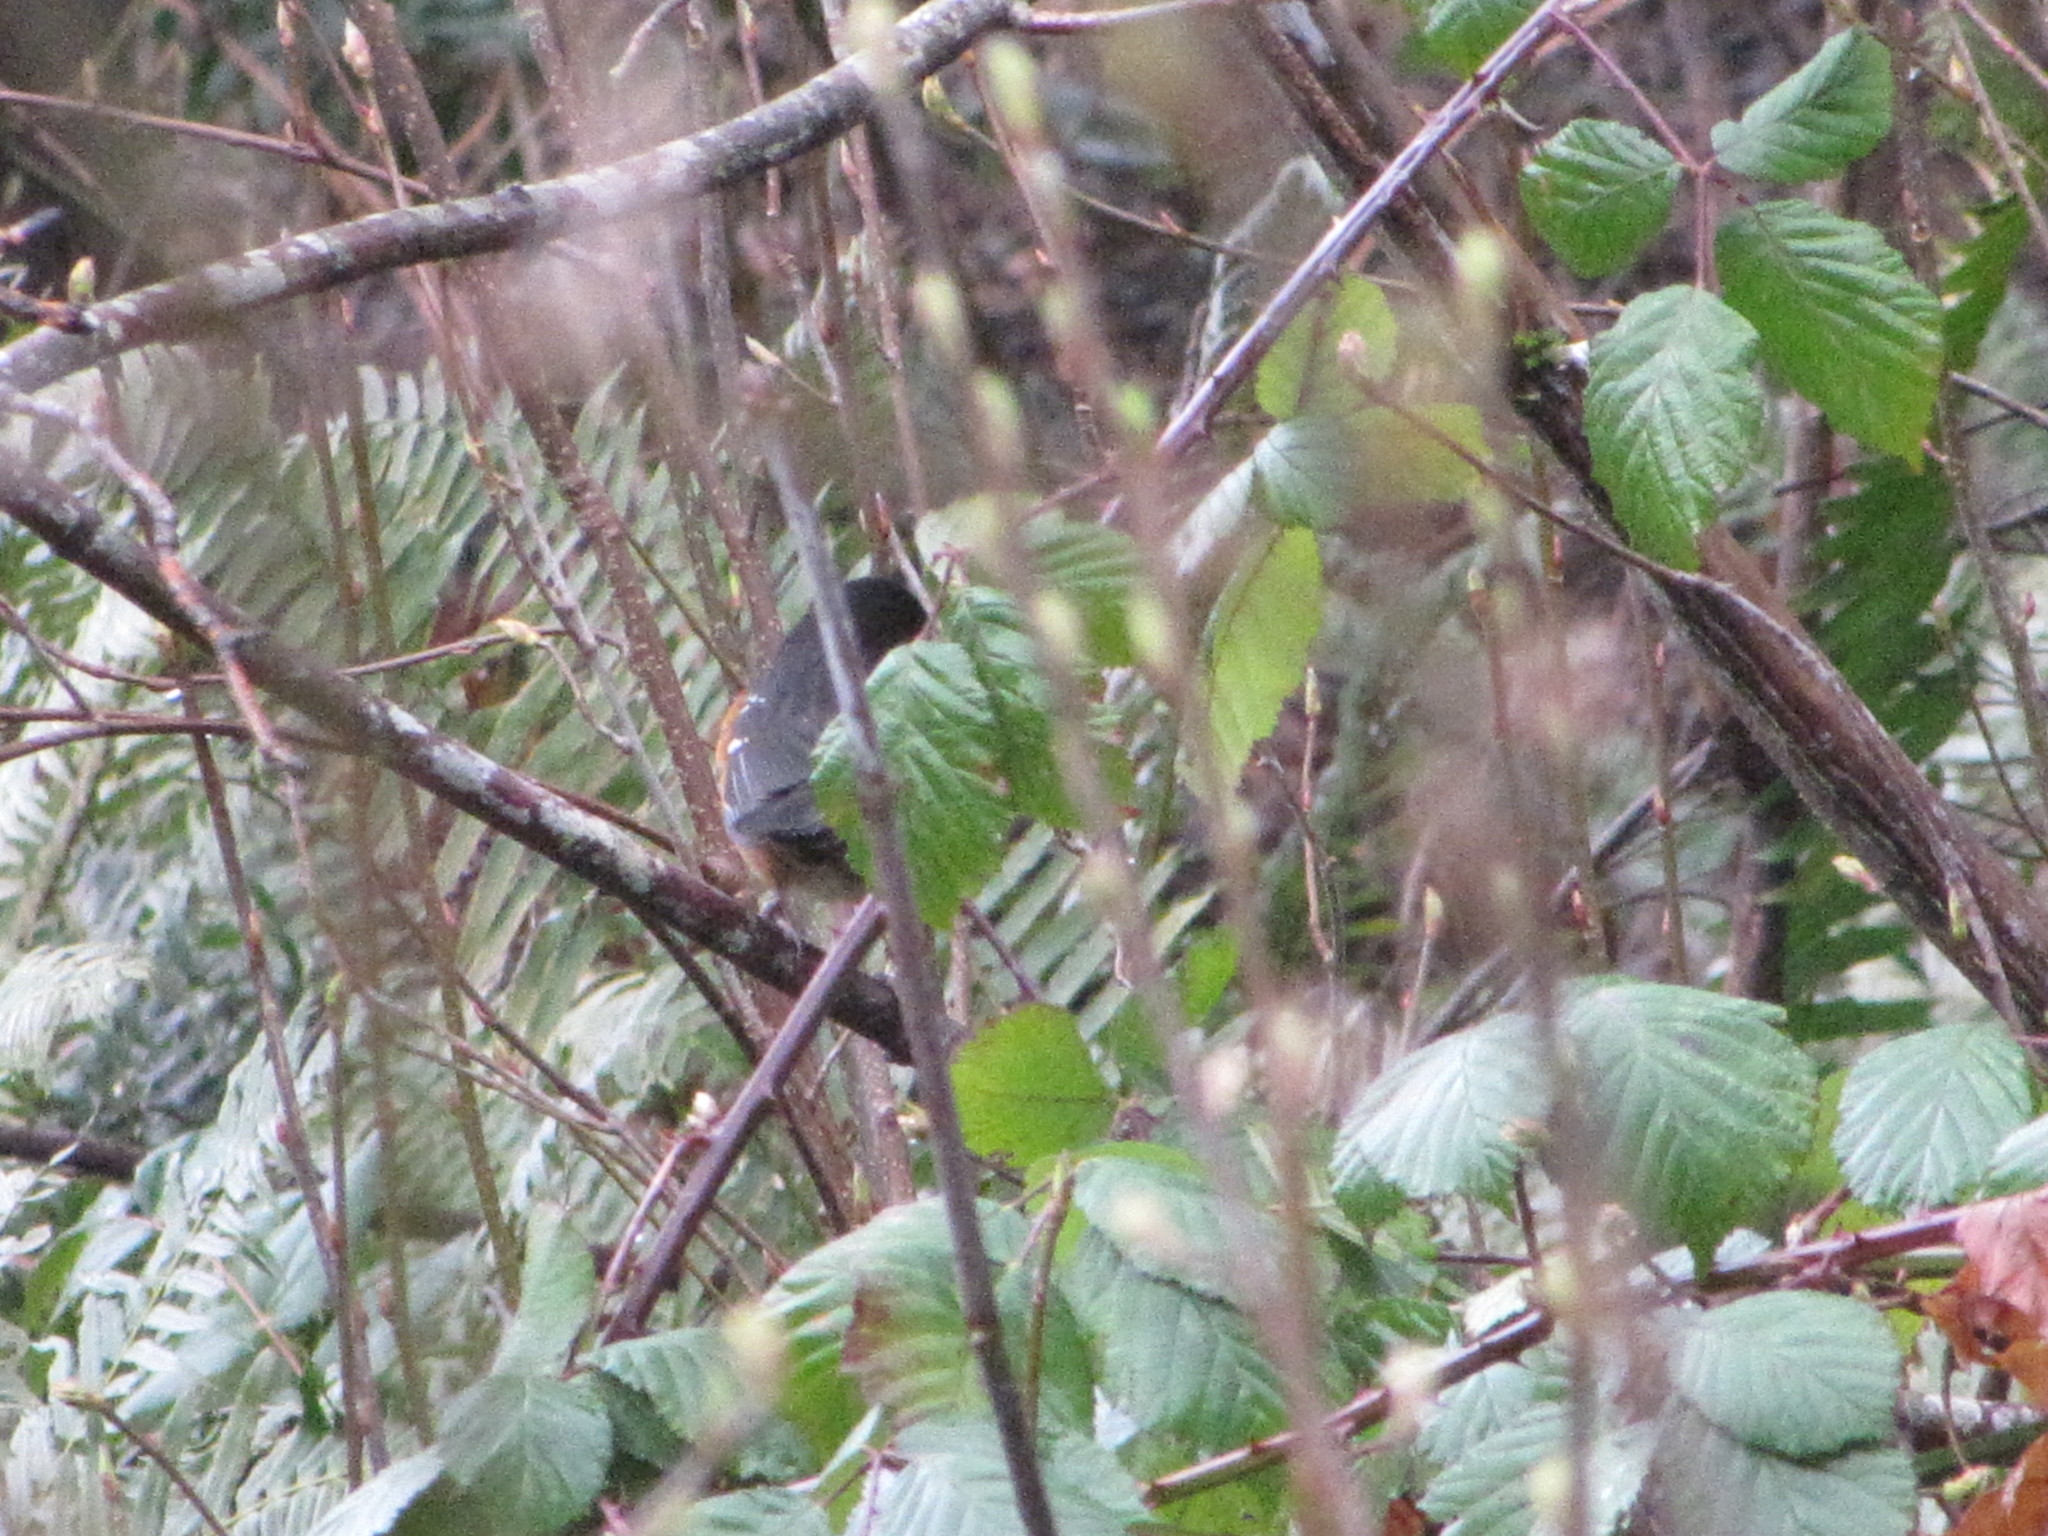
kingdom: Animalia
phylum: Chordata
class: Aves
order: Passeriformes
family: Passerellidae
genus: Pipilo
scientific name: Pipilo maculatus
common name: Spotted towhee
